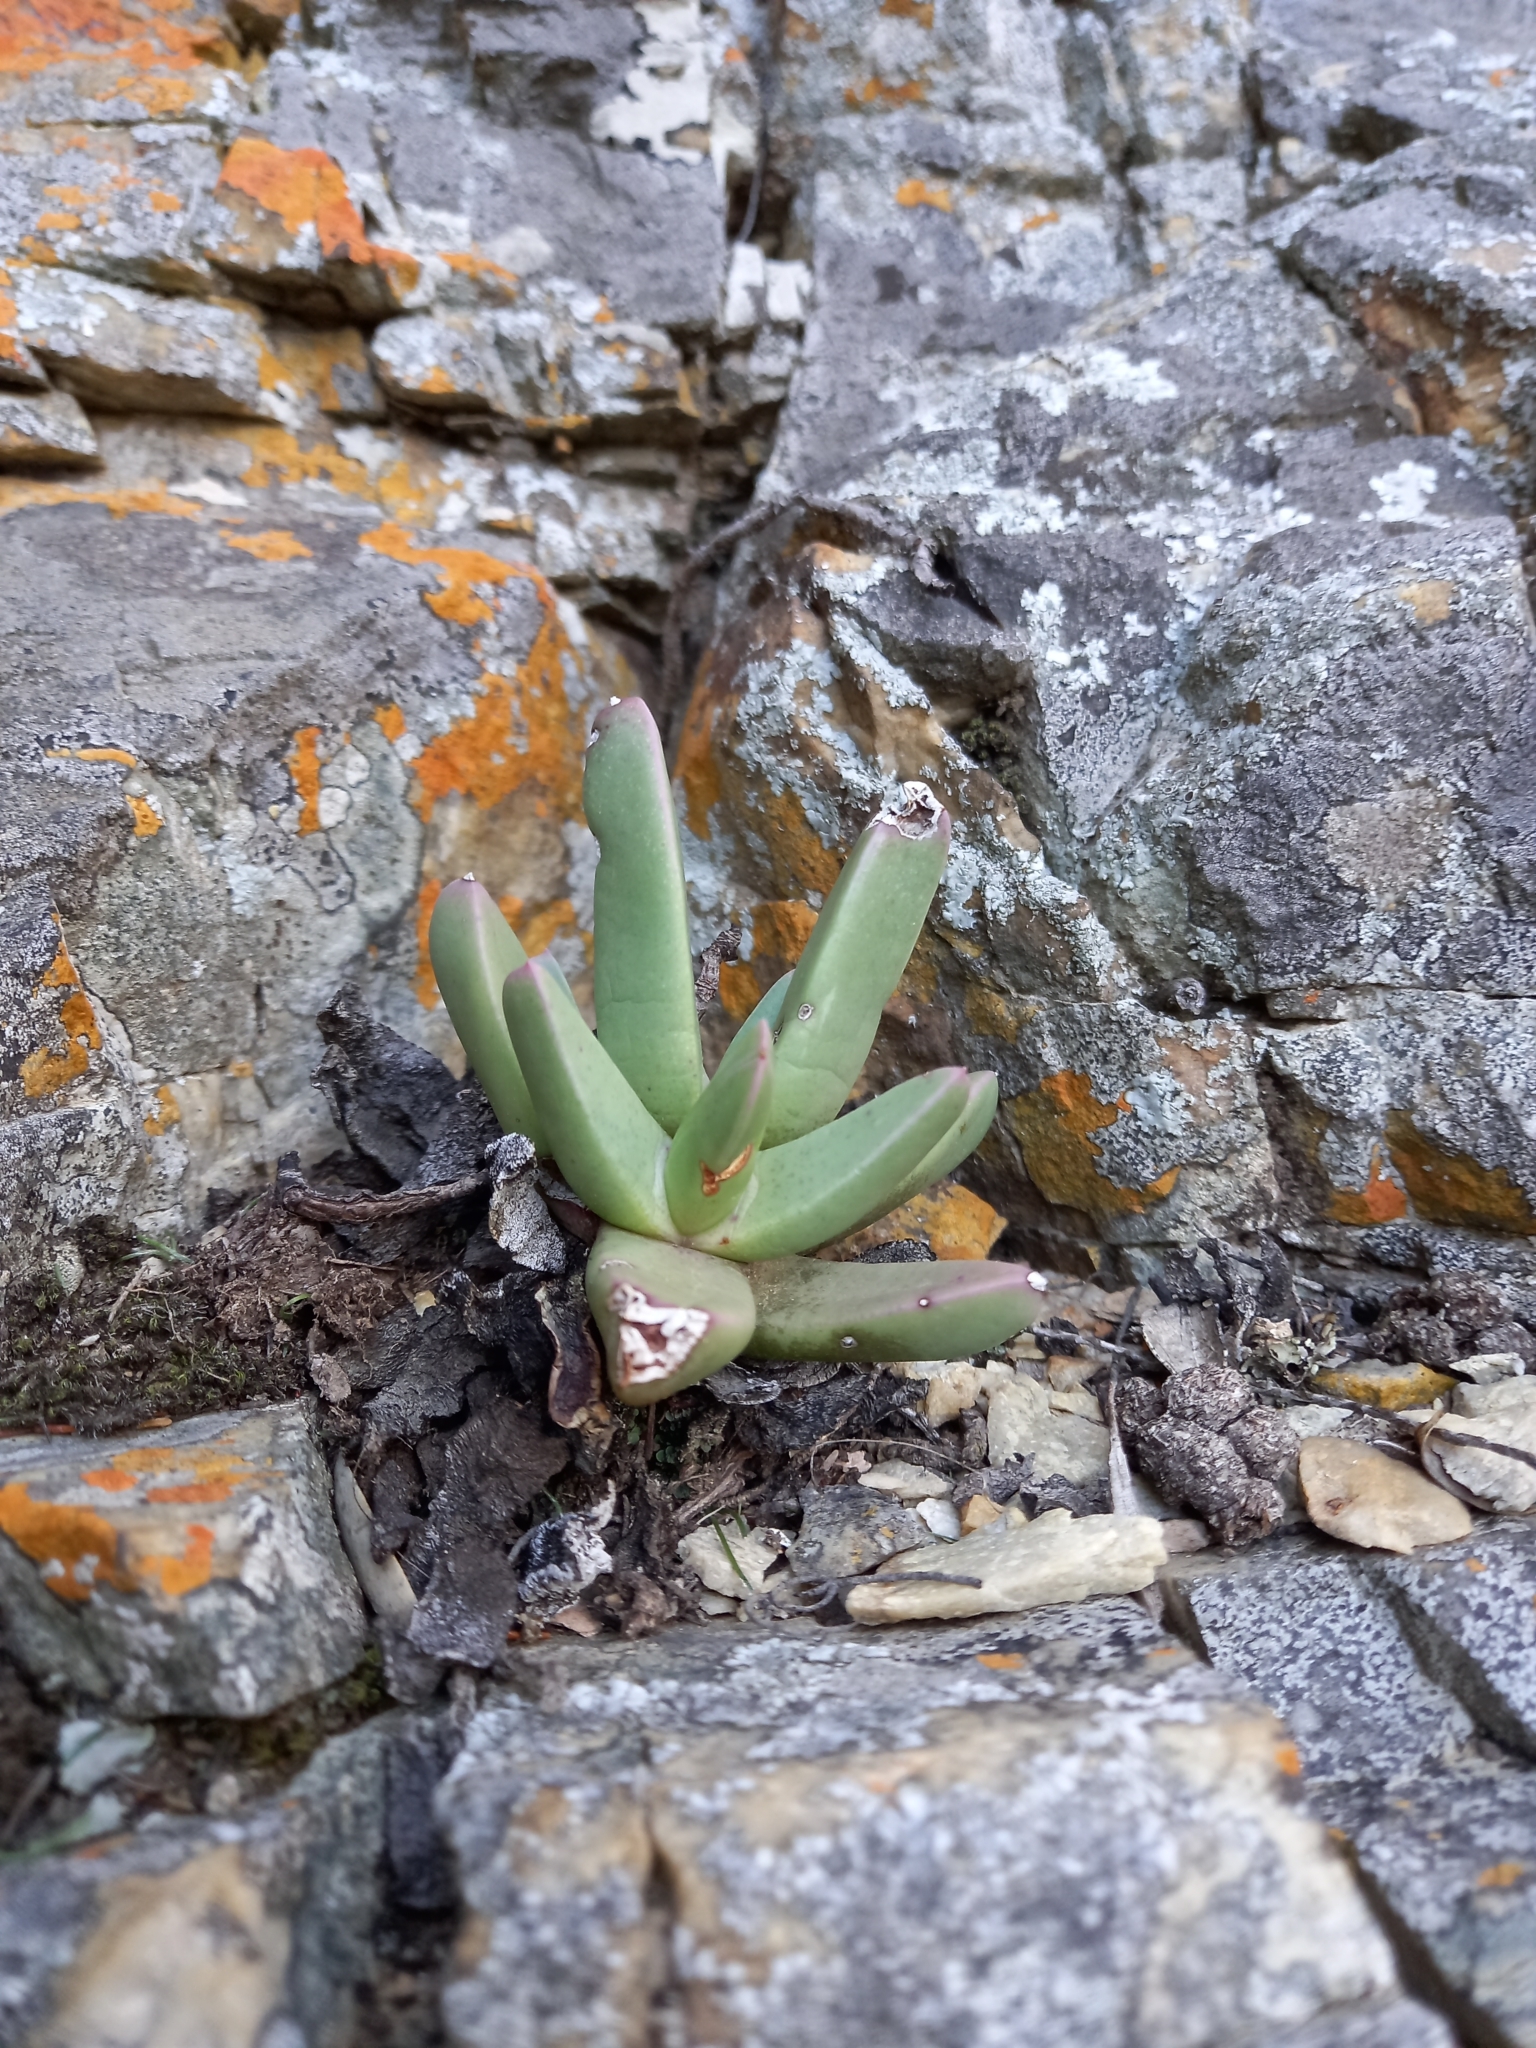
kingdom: Plantae
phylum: Tracheophyta
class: Magnoliopsida
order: Caryophyllales
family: Aizoaceae
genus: Machairophyllum
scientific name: Machairophyllum bijlii
